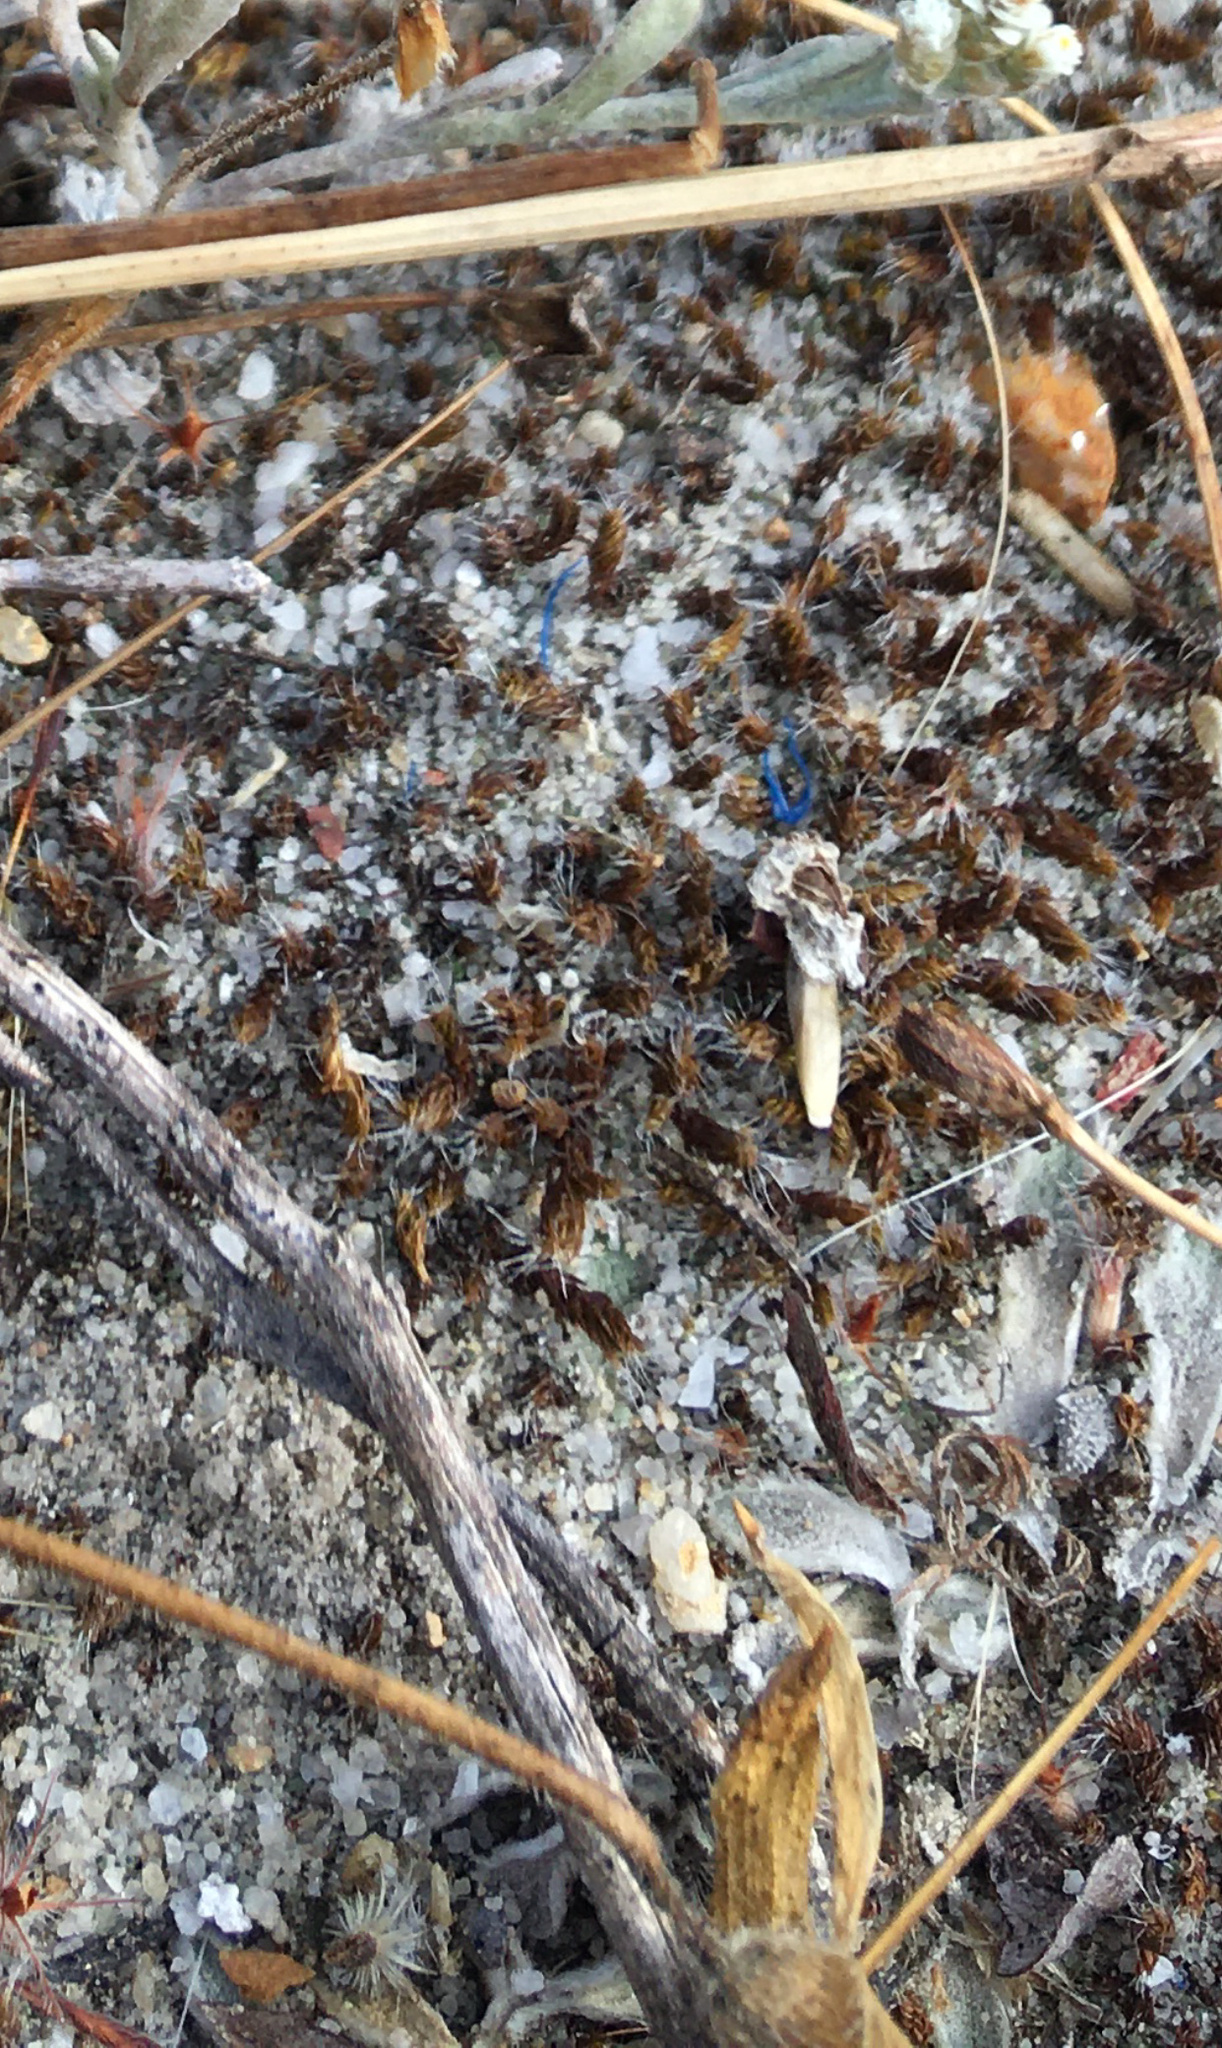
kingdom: Plantae
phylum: Bryophyta
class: Bryopsida
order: Pottiales
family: Pottiaceae
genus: Pseudocrossidium
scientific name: Pseudocrossidium crinitum
